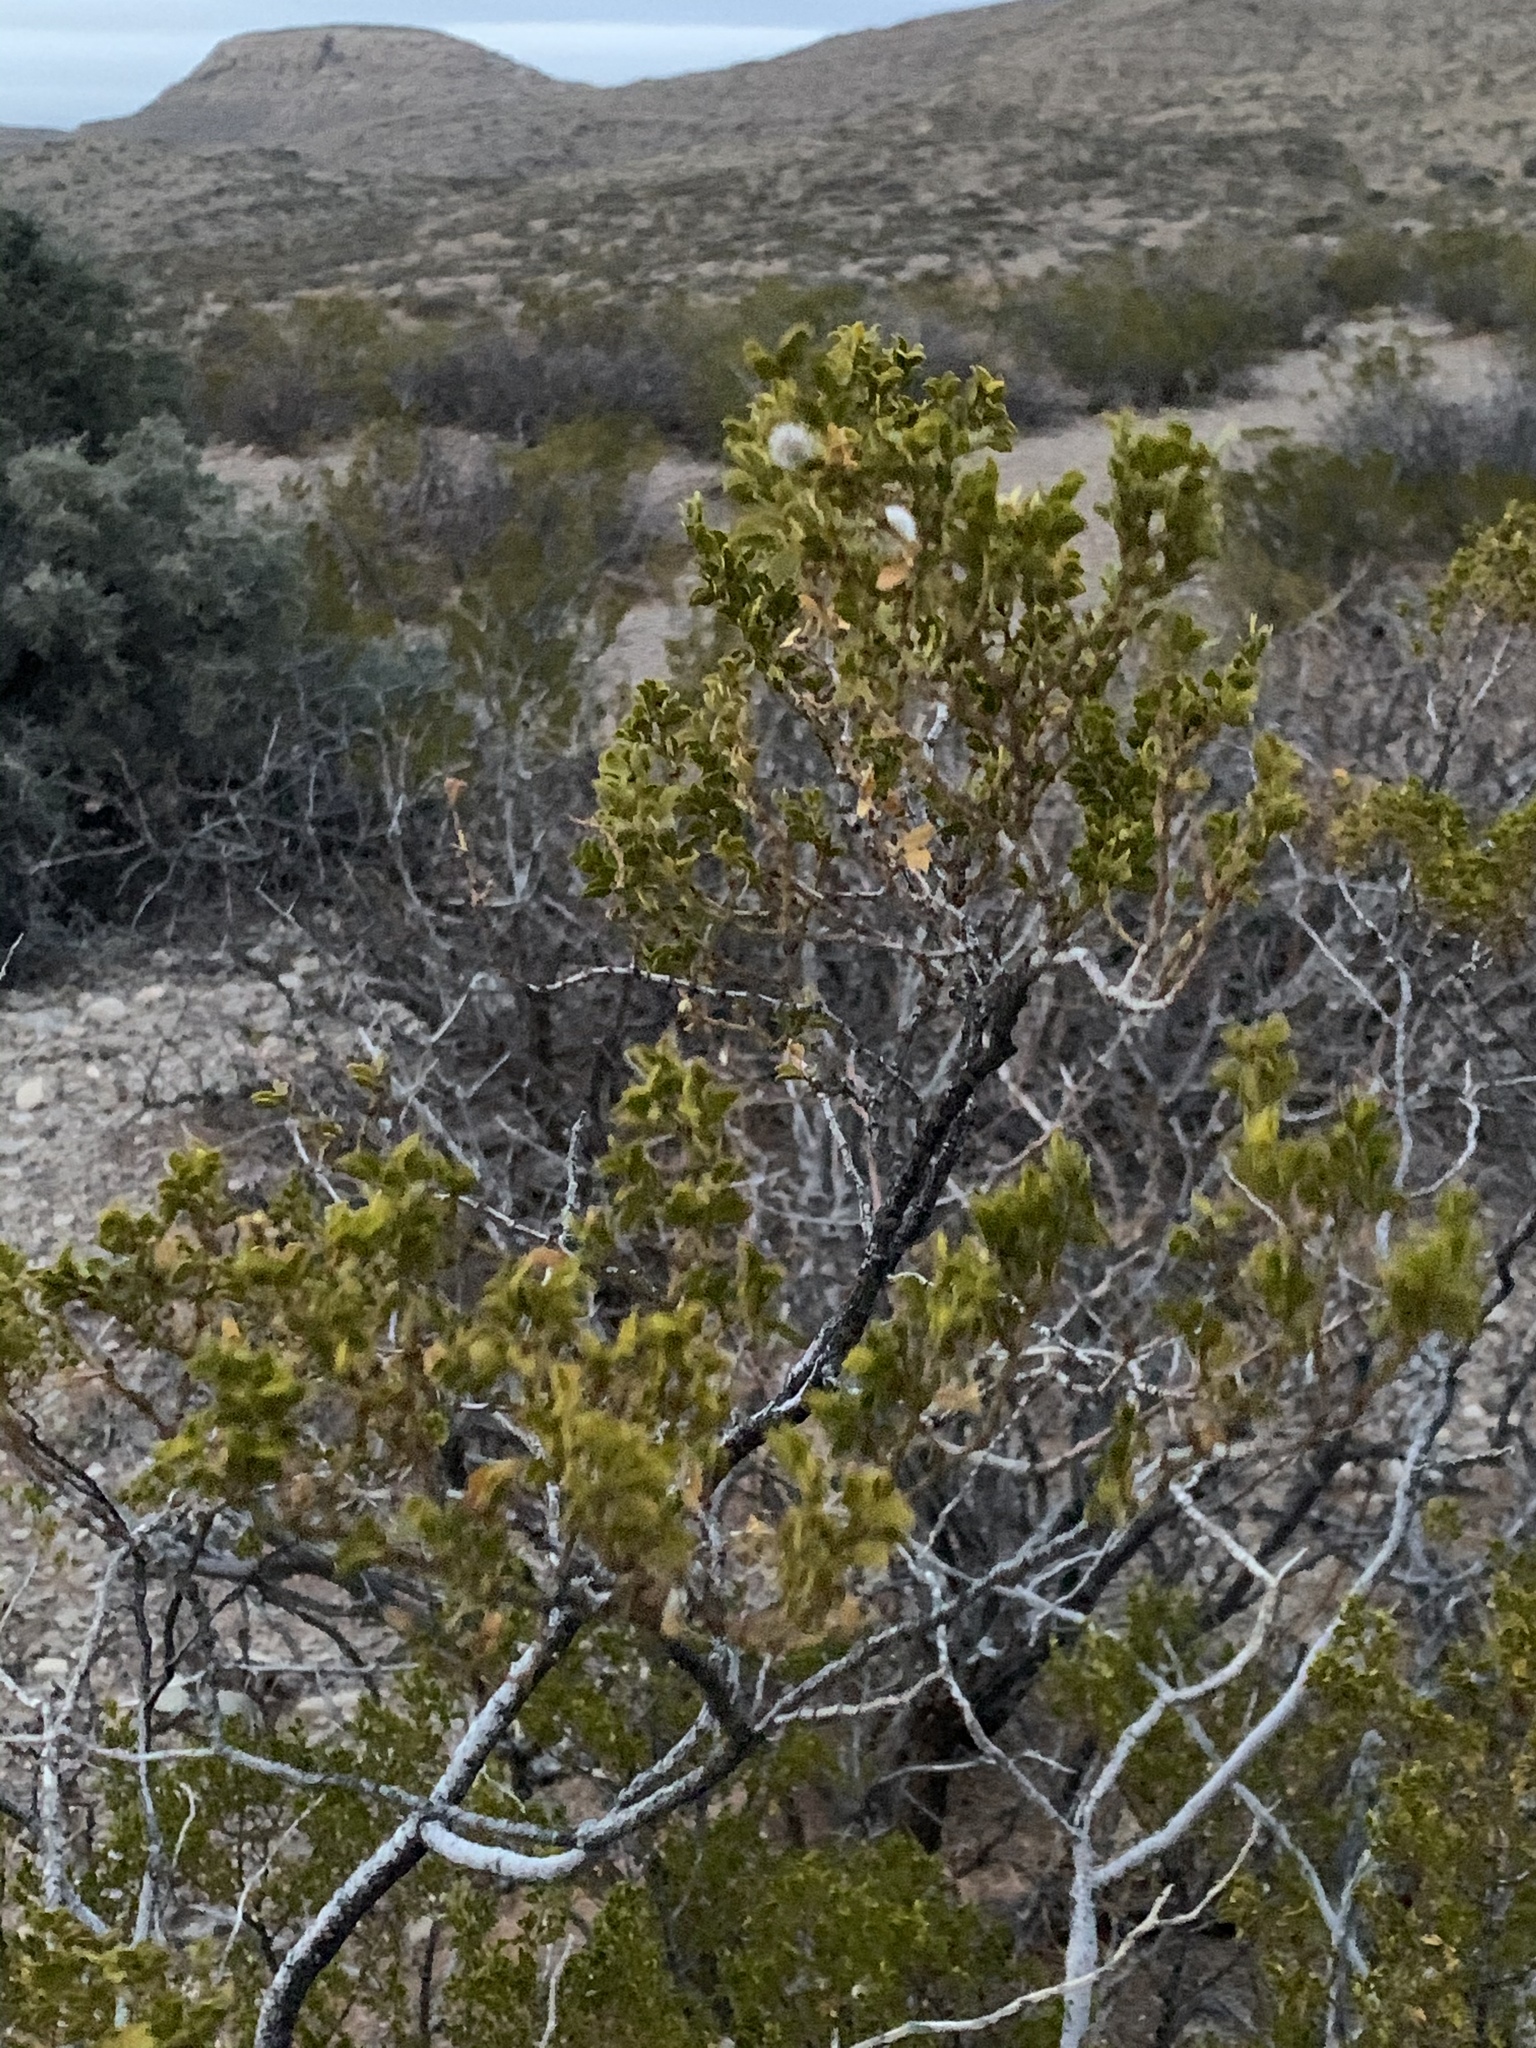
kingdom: Plantae
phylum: Tracheophyta
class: Magnoliopsida
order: Zygophyllales
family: Zygophyllaceae
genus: Larrea
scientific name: Larrea tridentata
